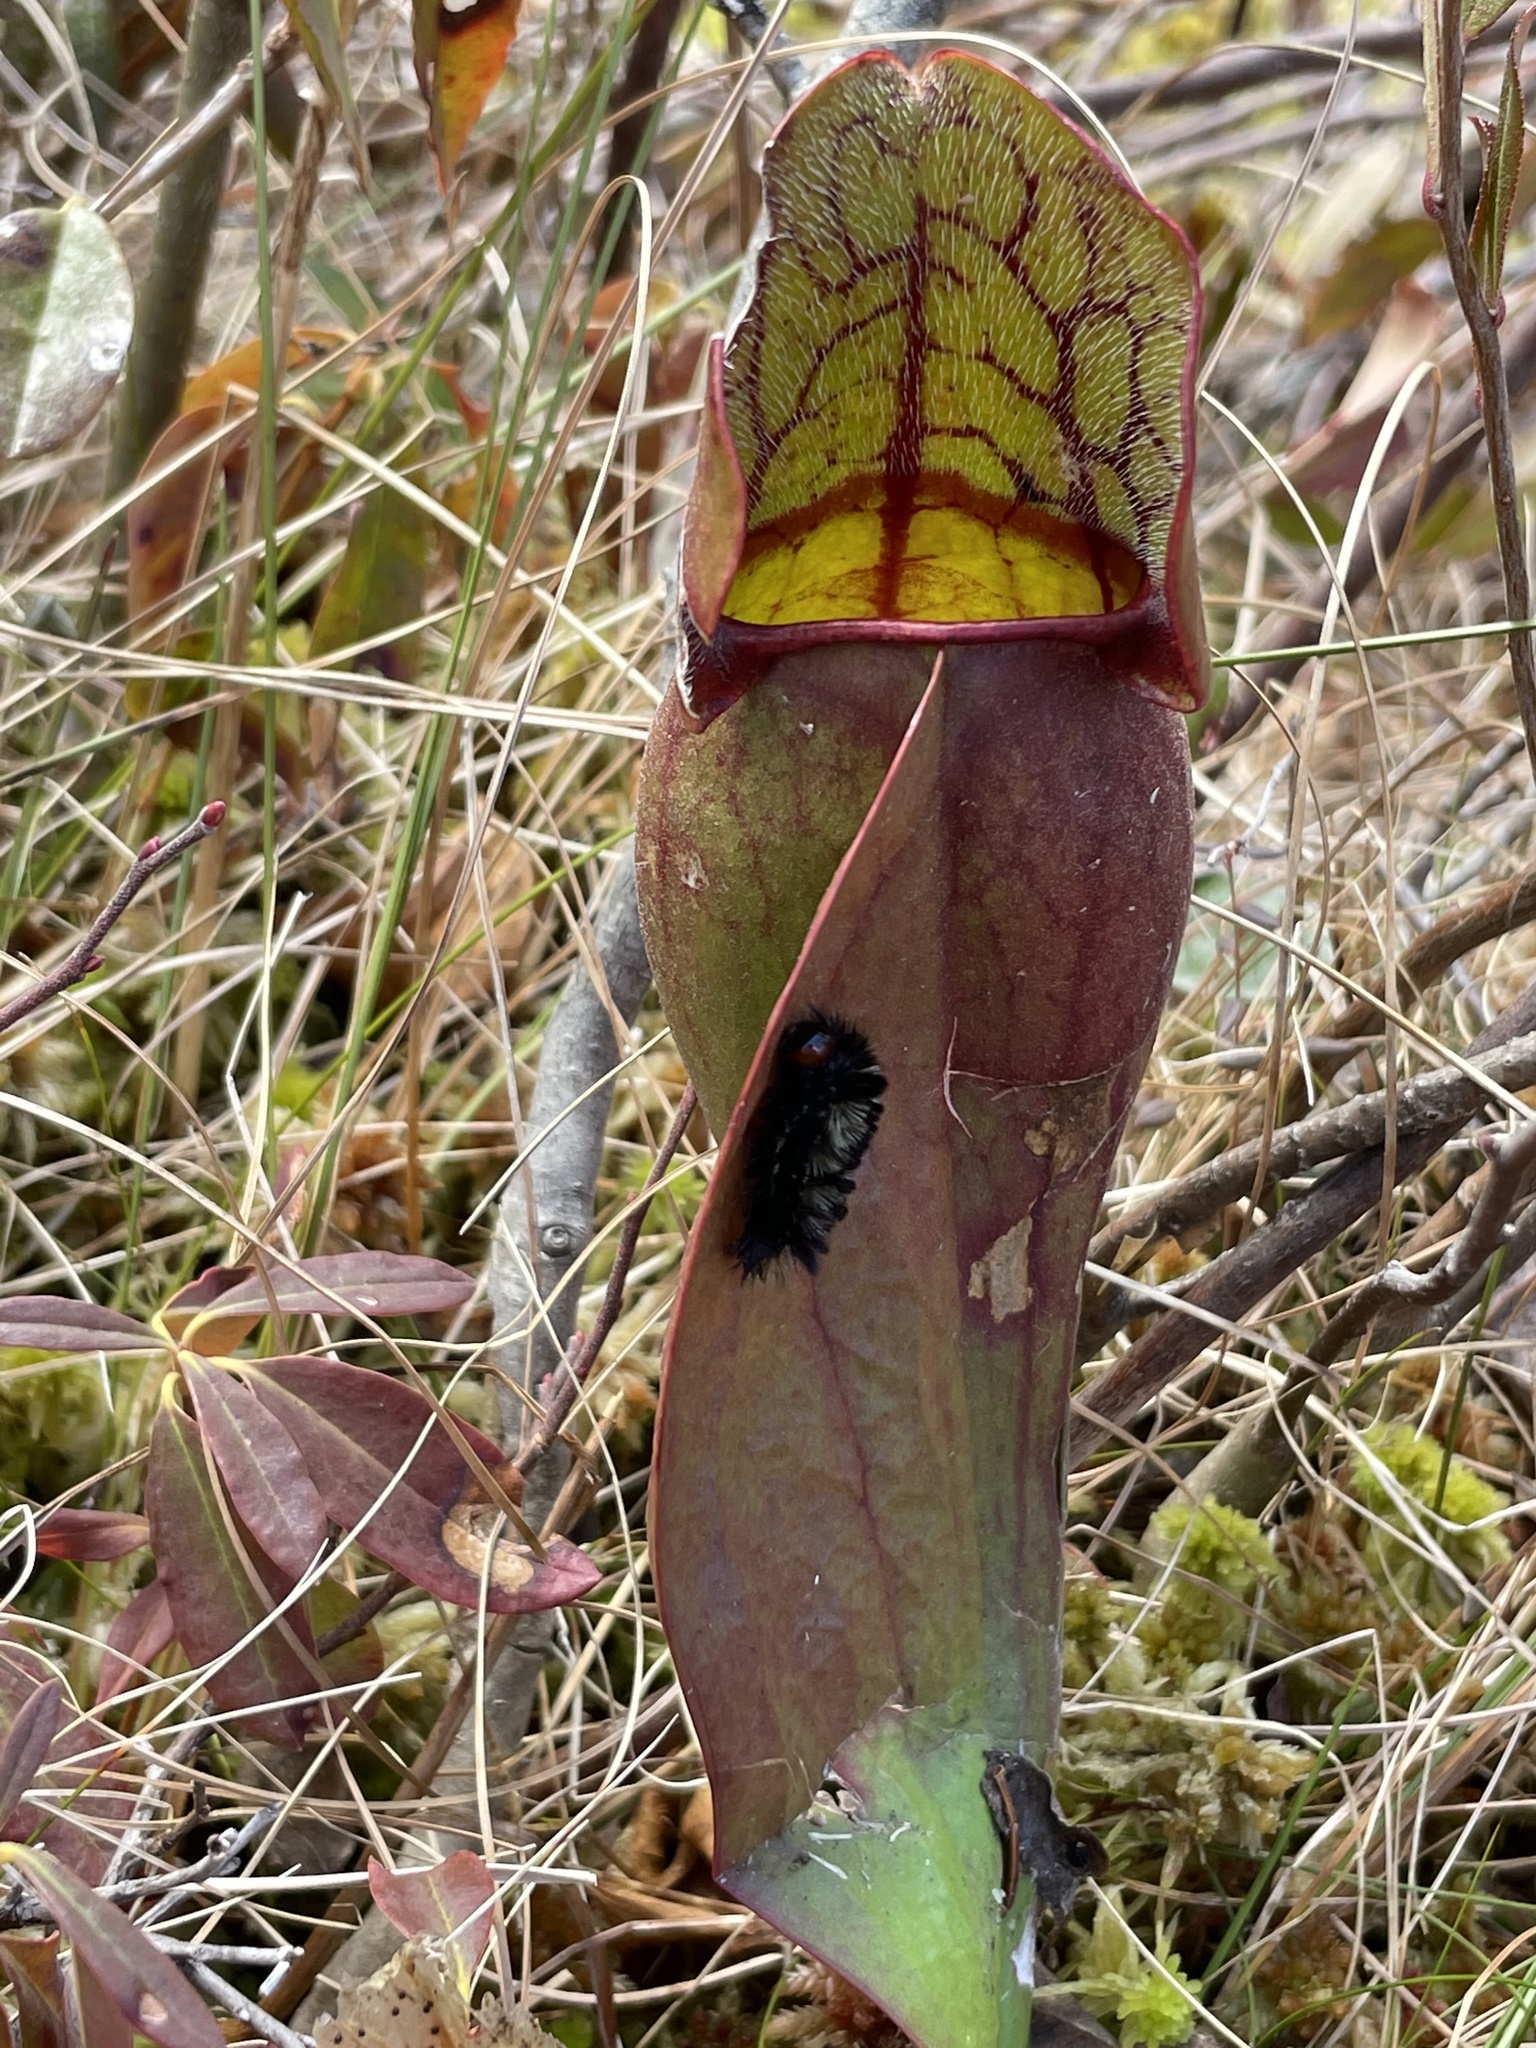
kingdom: Plantae
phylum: Tracheophyta
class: Magnoliopsida
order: Ericales
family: Sarraceniaceae
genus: Sarracenia
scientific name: Sarracenia purpurea
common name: Pitcherplant
